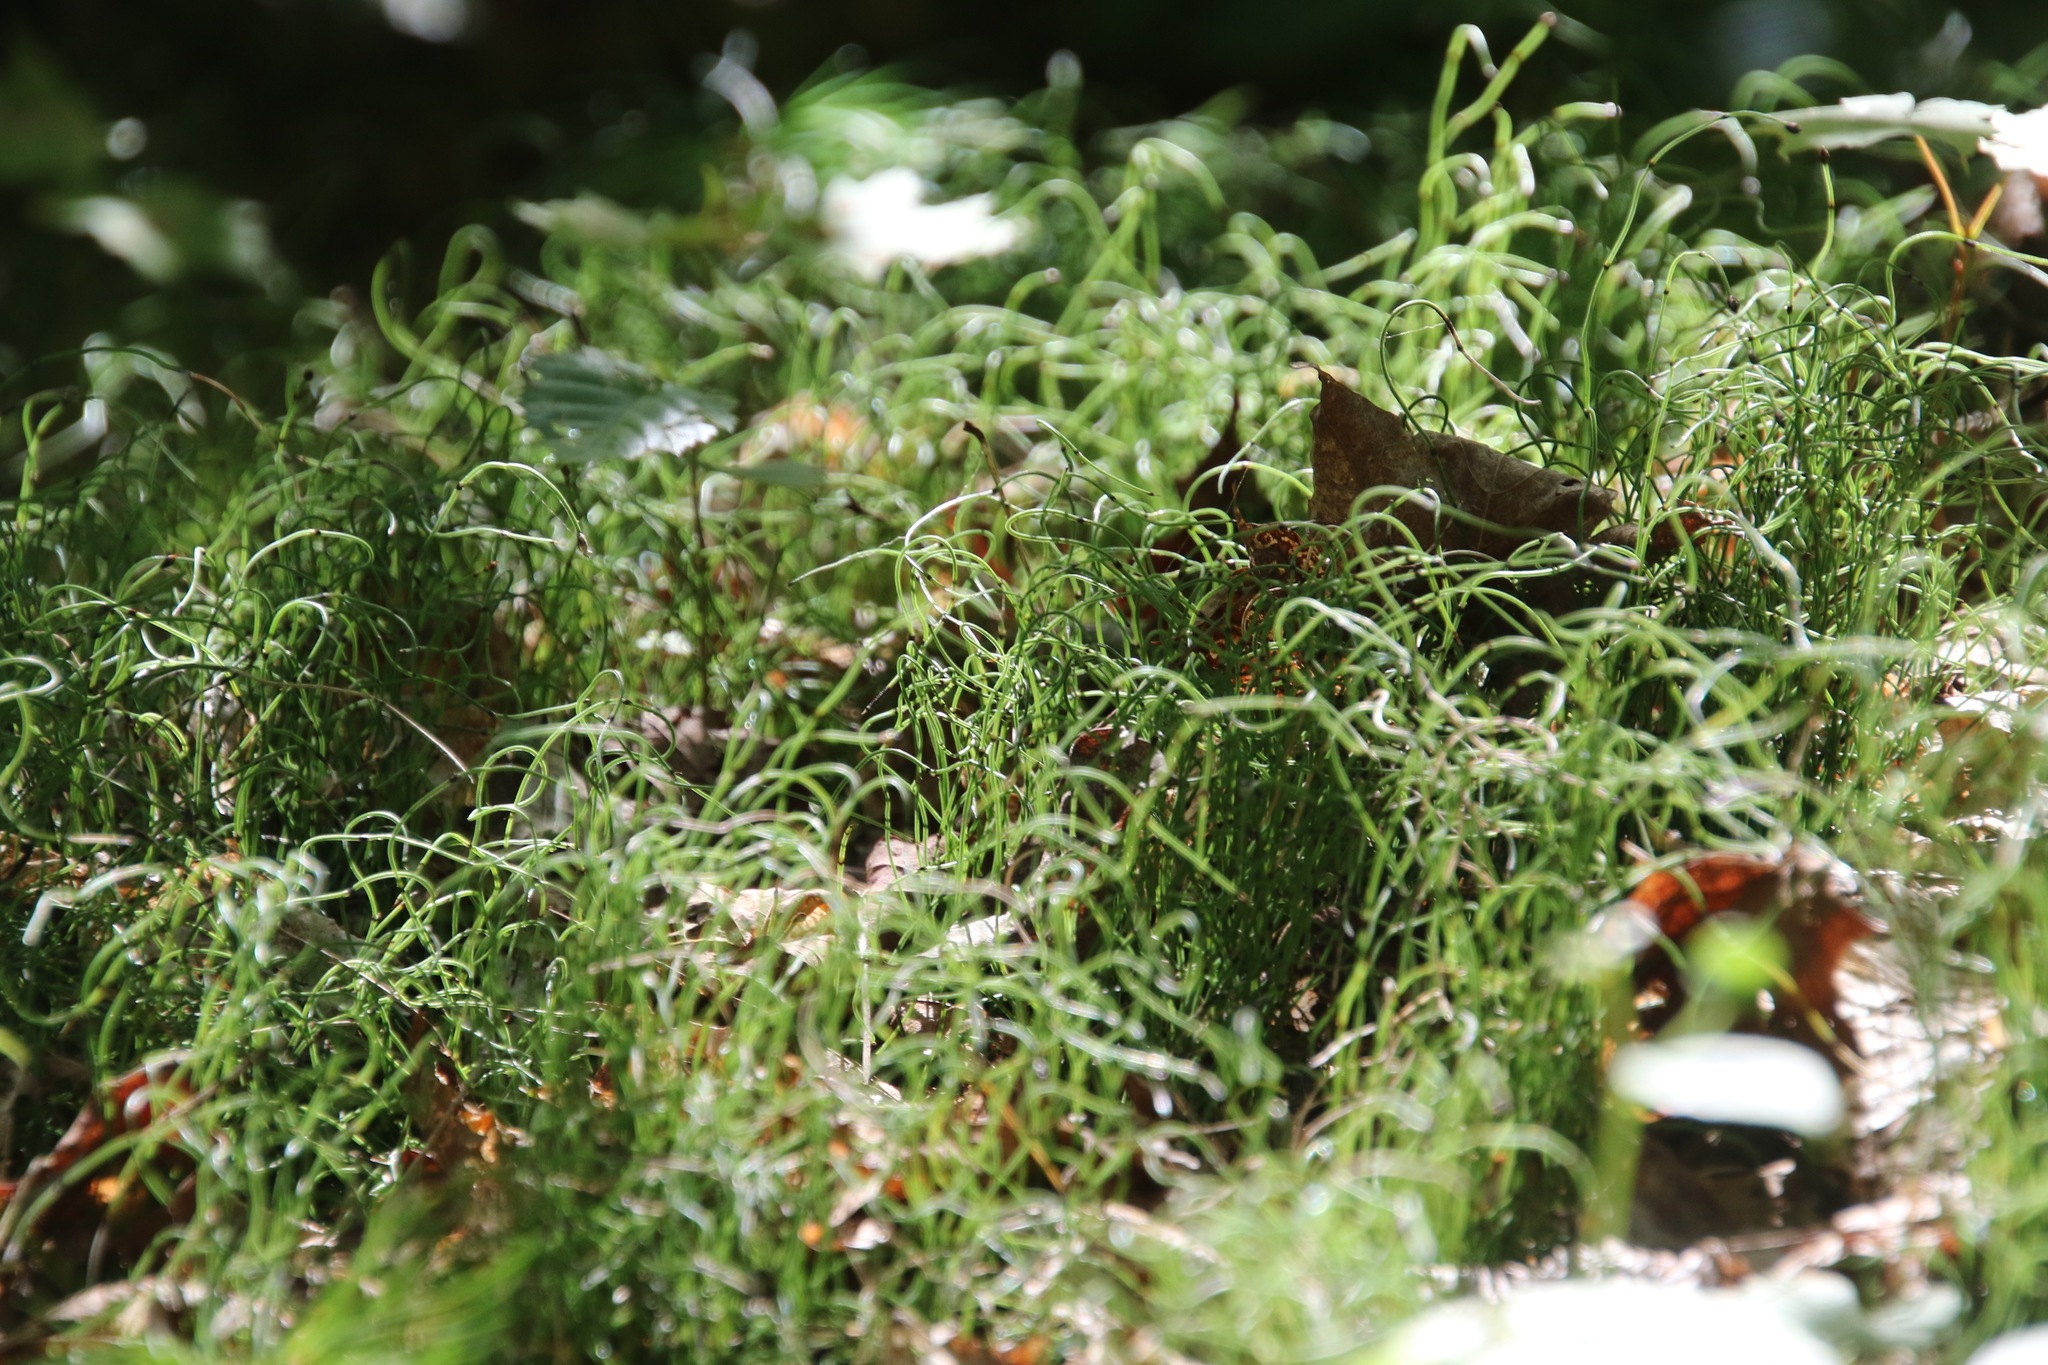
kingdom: Plantae
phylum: Tracheophyta
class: Polypodiopsida
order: Equisetales
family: Equisetaceae
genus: Equisetum
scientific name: Equisetum scirpoides
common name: Delicate horsetail
